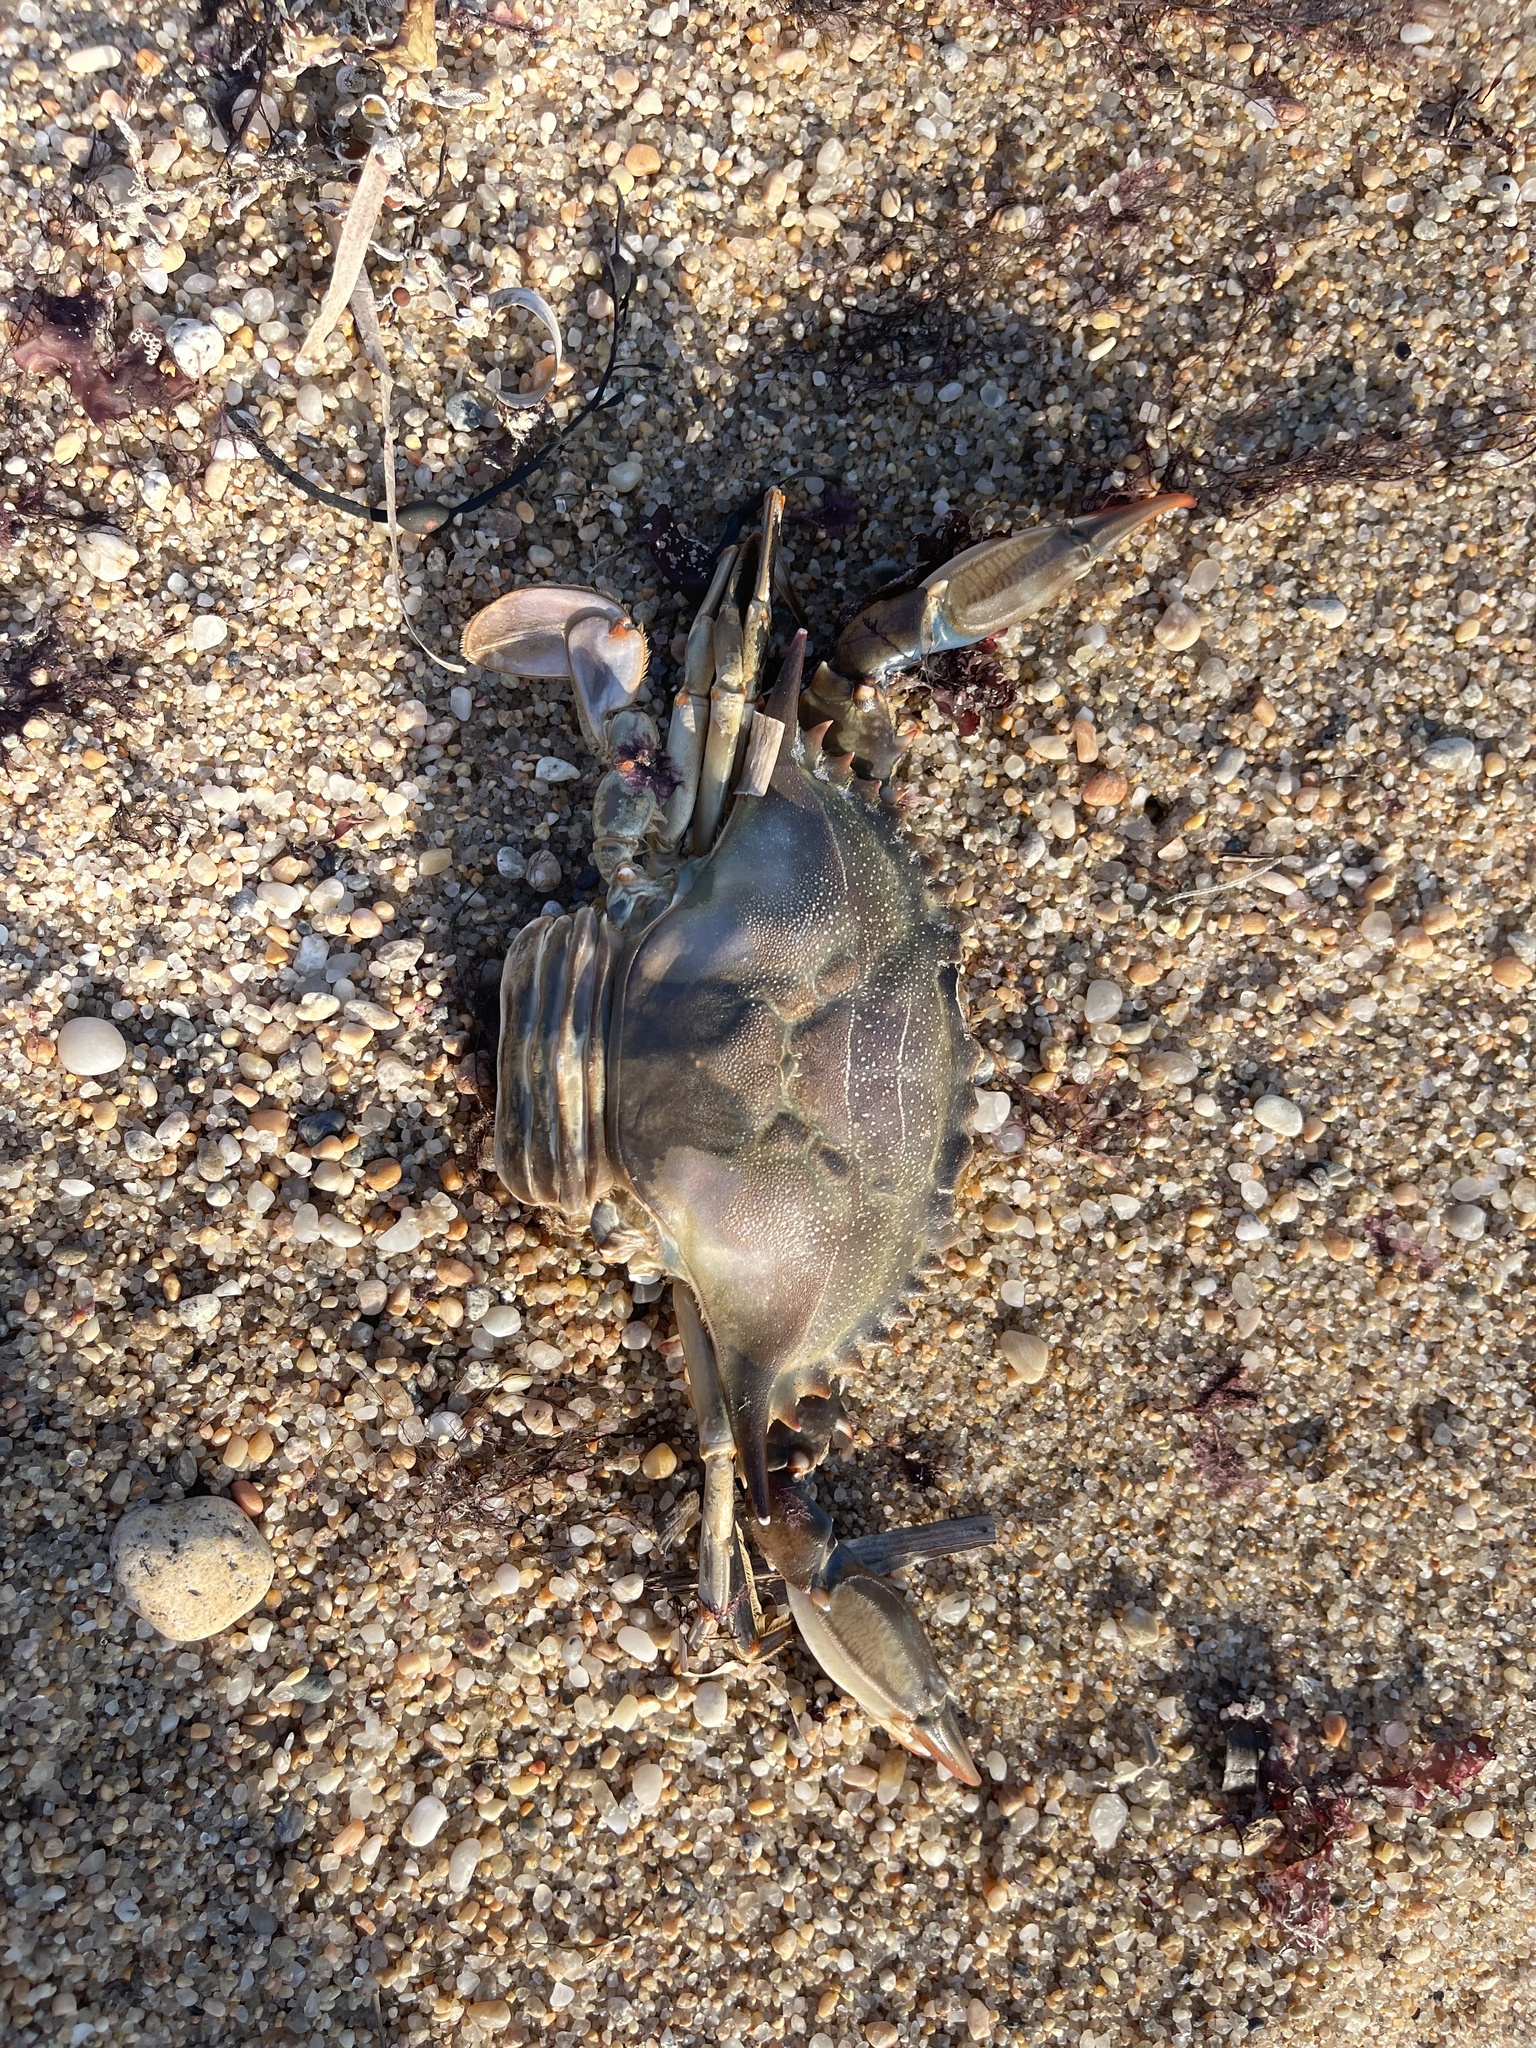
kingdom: Animalia
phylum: Arthropoda
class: Malacostraca
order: Decapoda
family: Portunidae
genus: Callinectes
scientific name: Callinectes sapidus
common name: Blue crab
